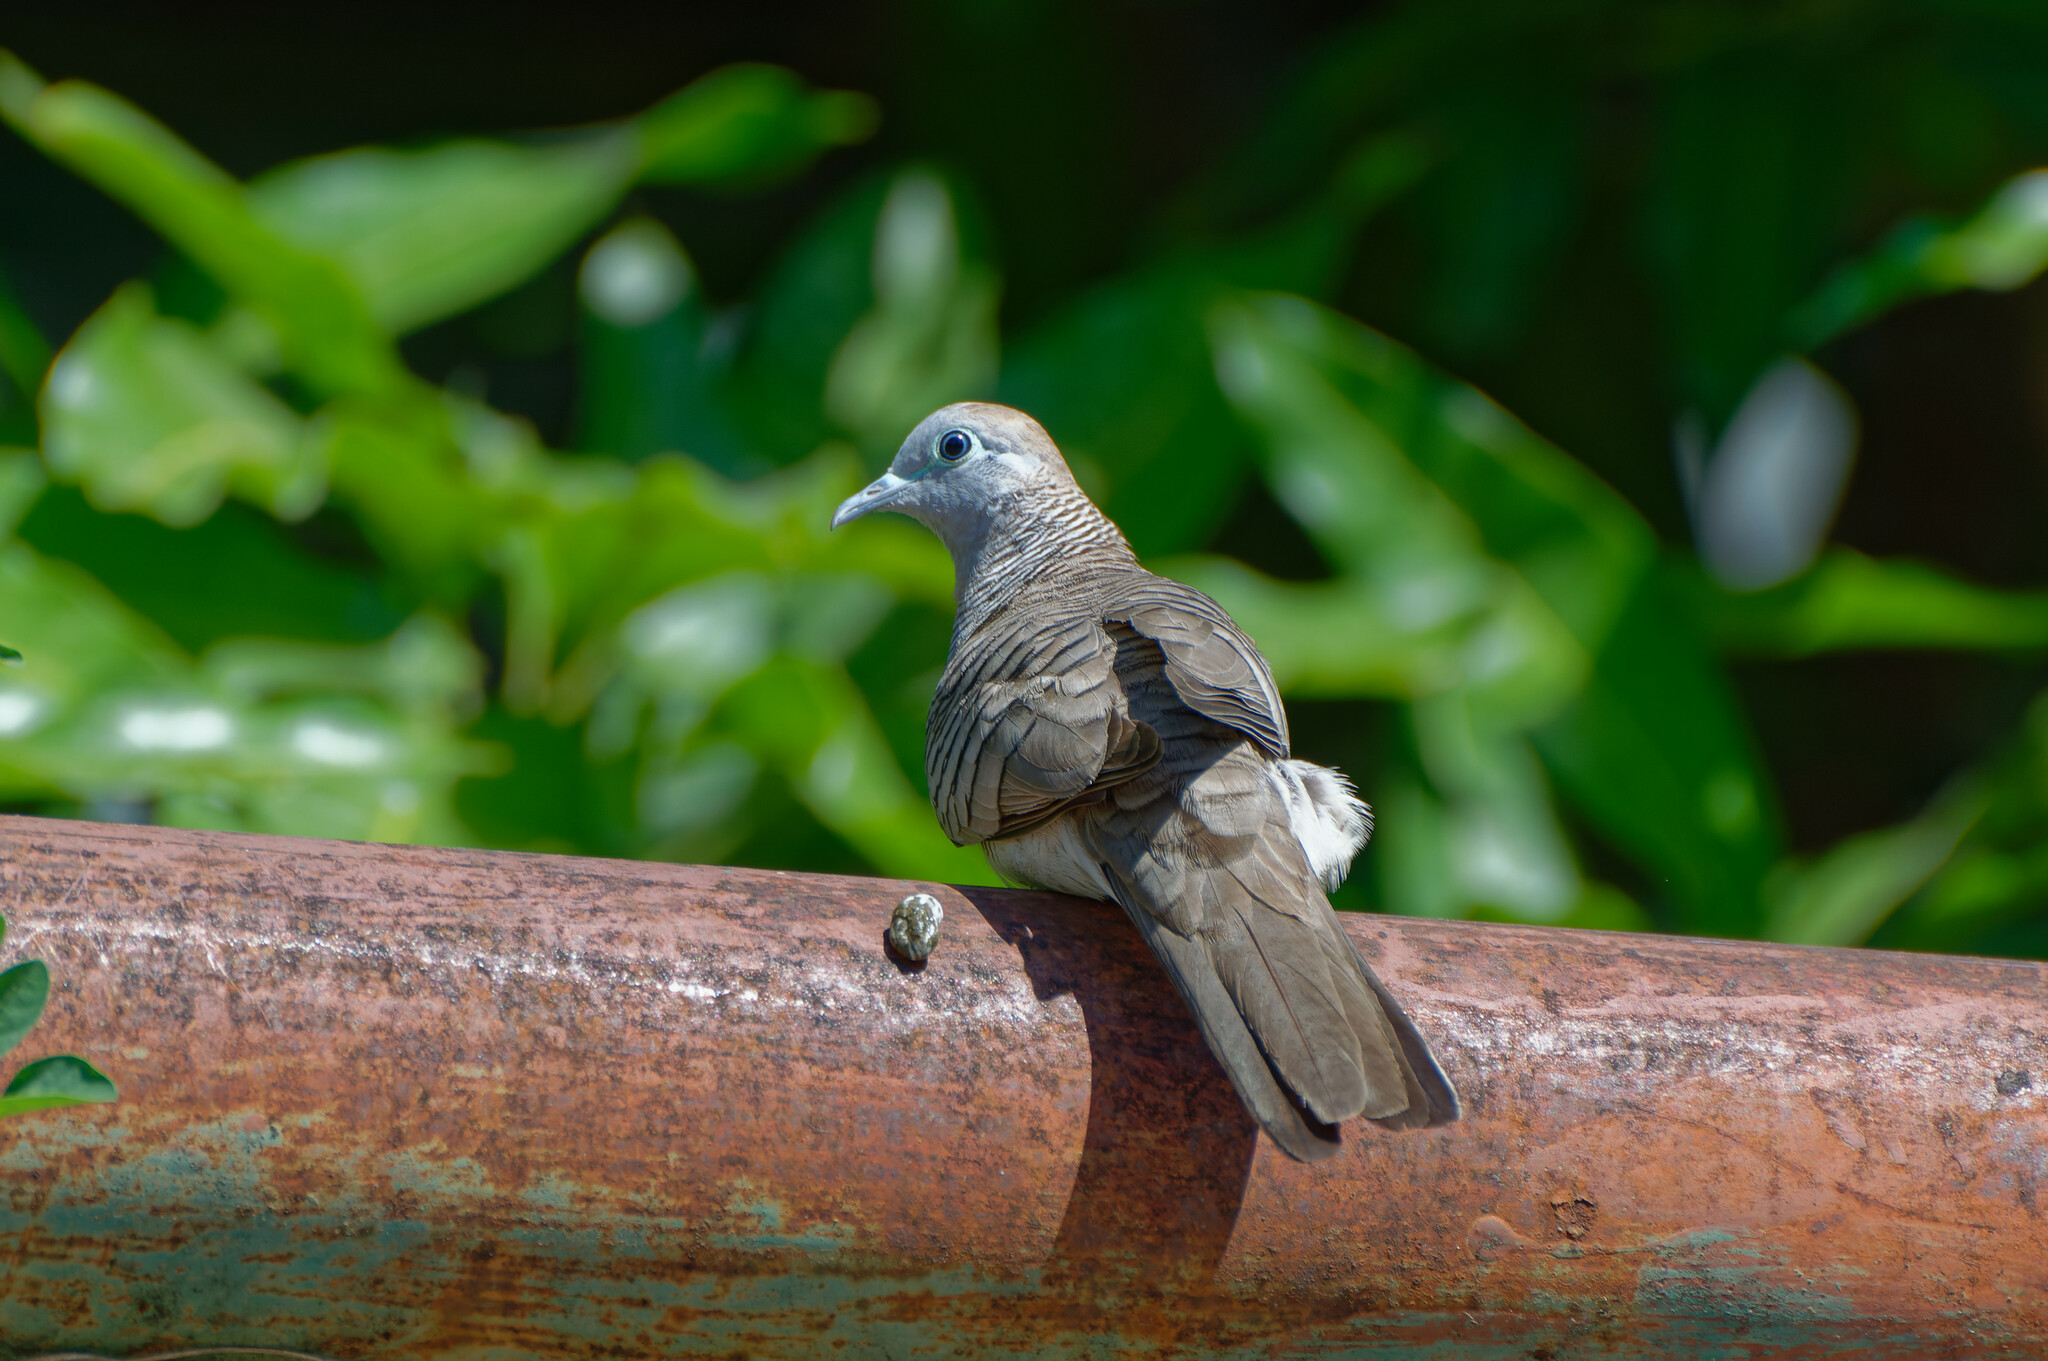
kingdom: Animalia
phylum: Chordata
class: Aves
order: Columbiformes
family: Columbidae
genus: Geopelia
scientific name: Geopelia striata
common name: Zebra dove
